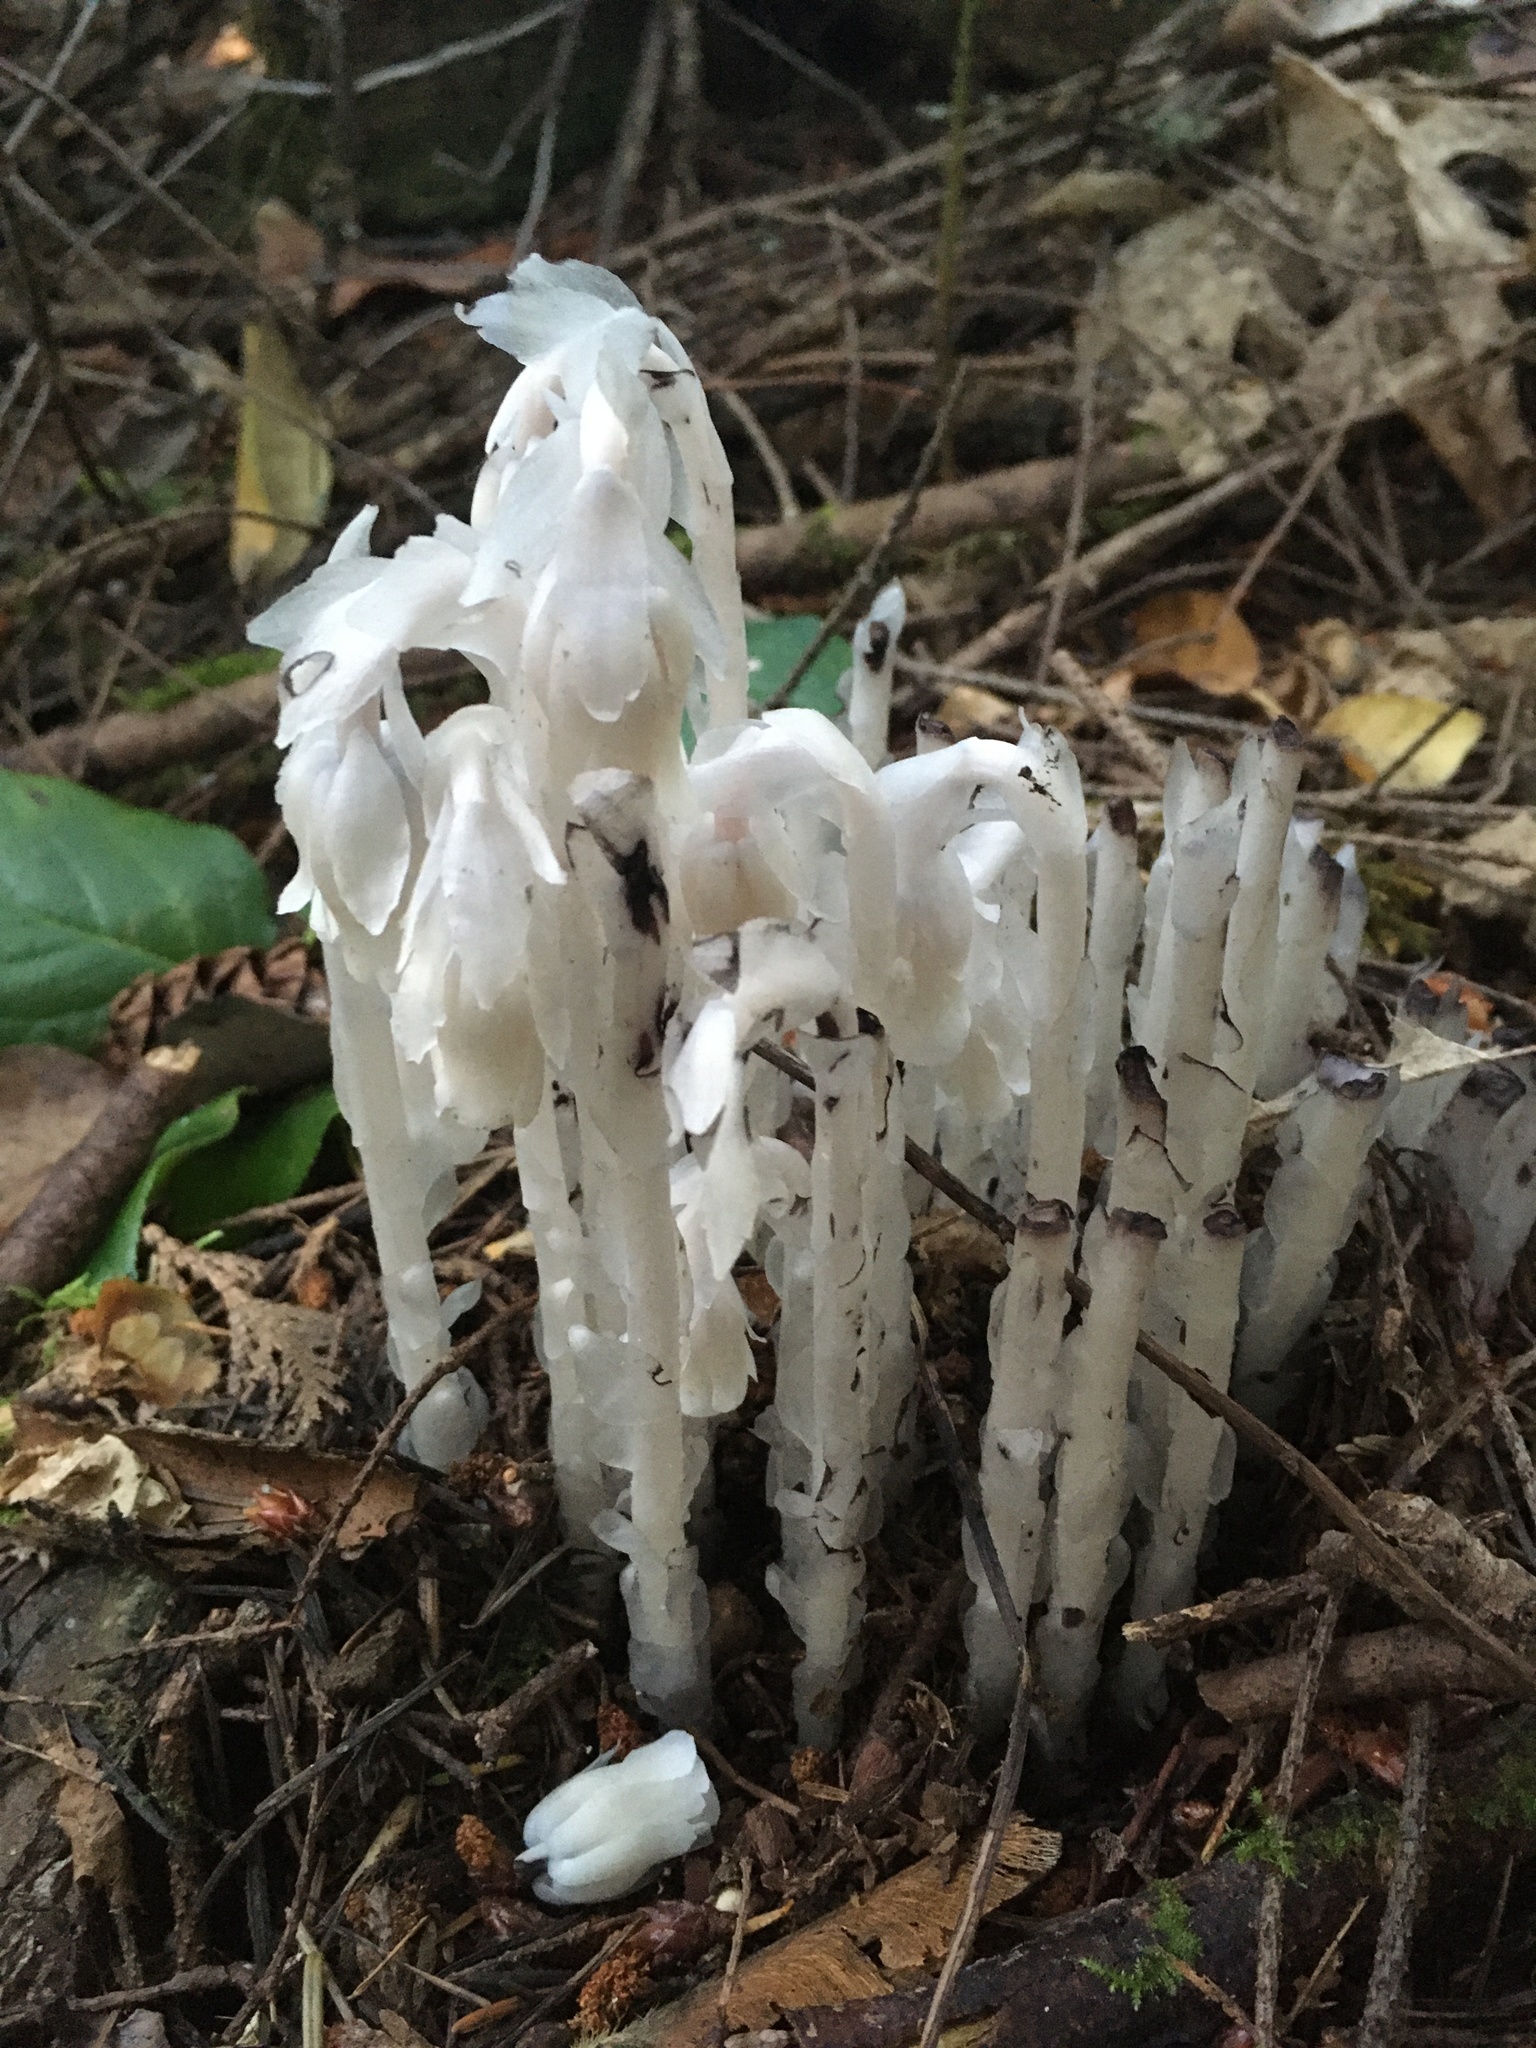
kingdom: Plantae
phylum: Tracheophyta
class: Magnoliopsida
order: Ericales
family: Ericaceae
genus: Monotropa
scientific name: Monotropa uniflora
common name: Convulsion root
